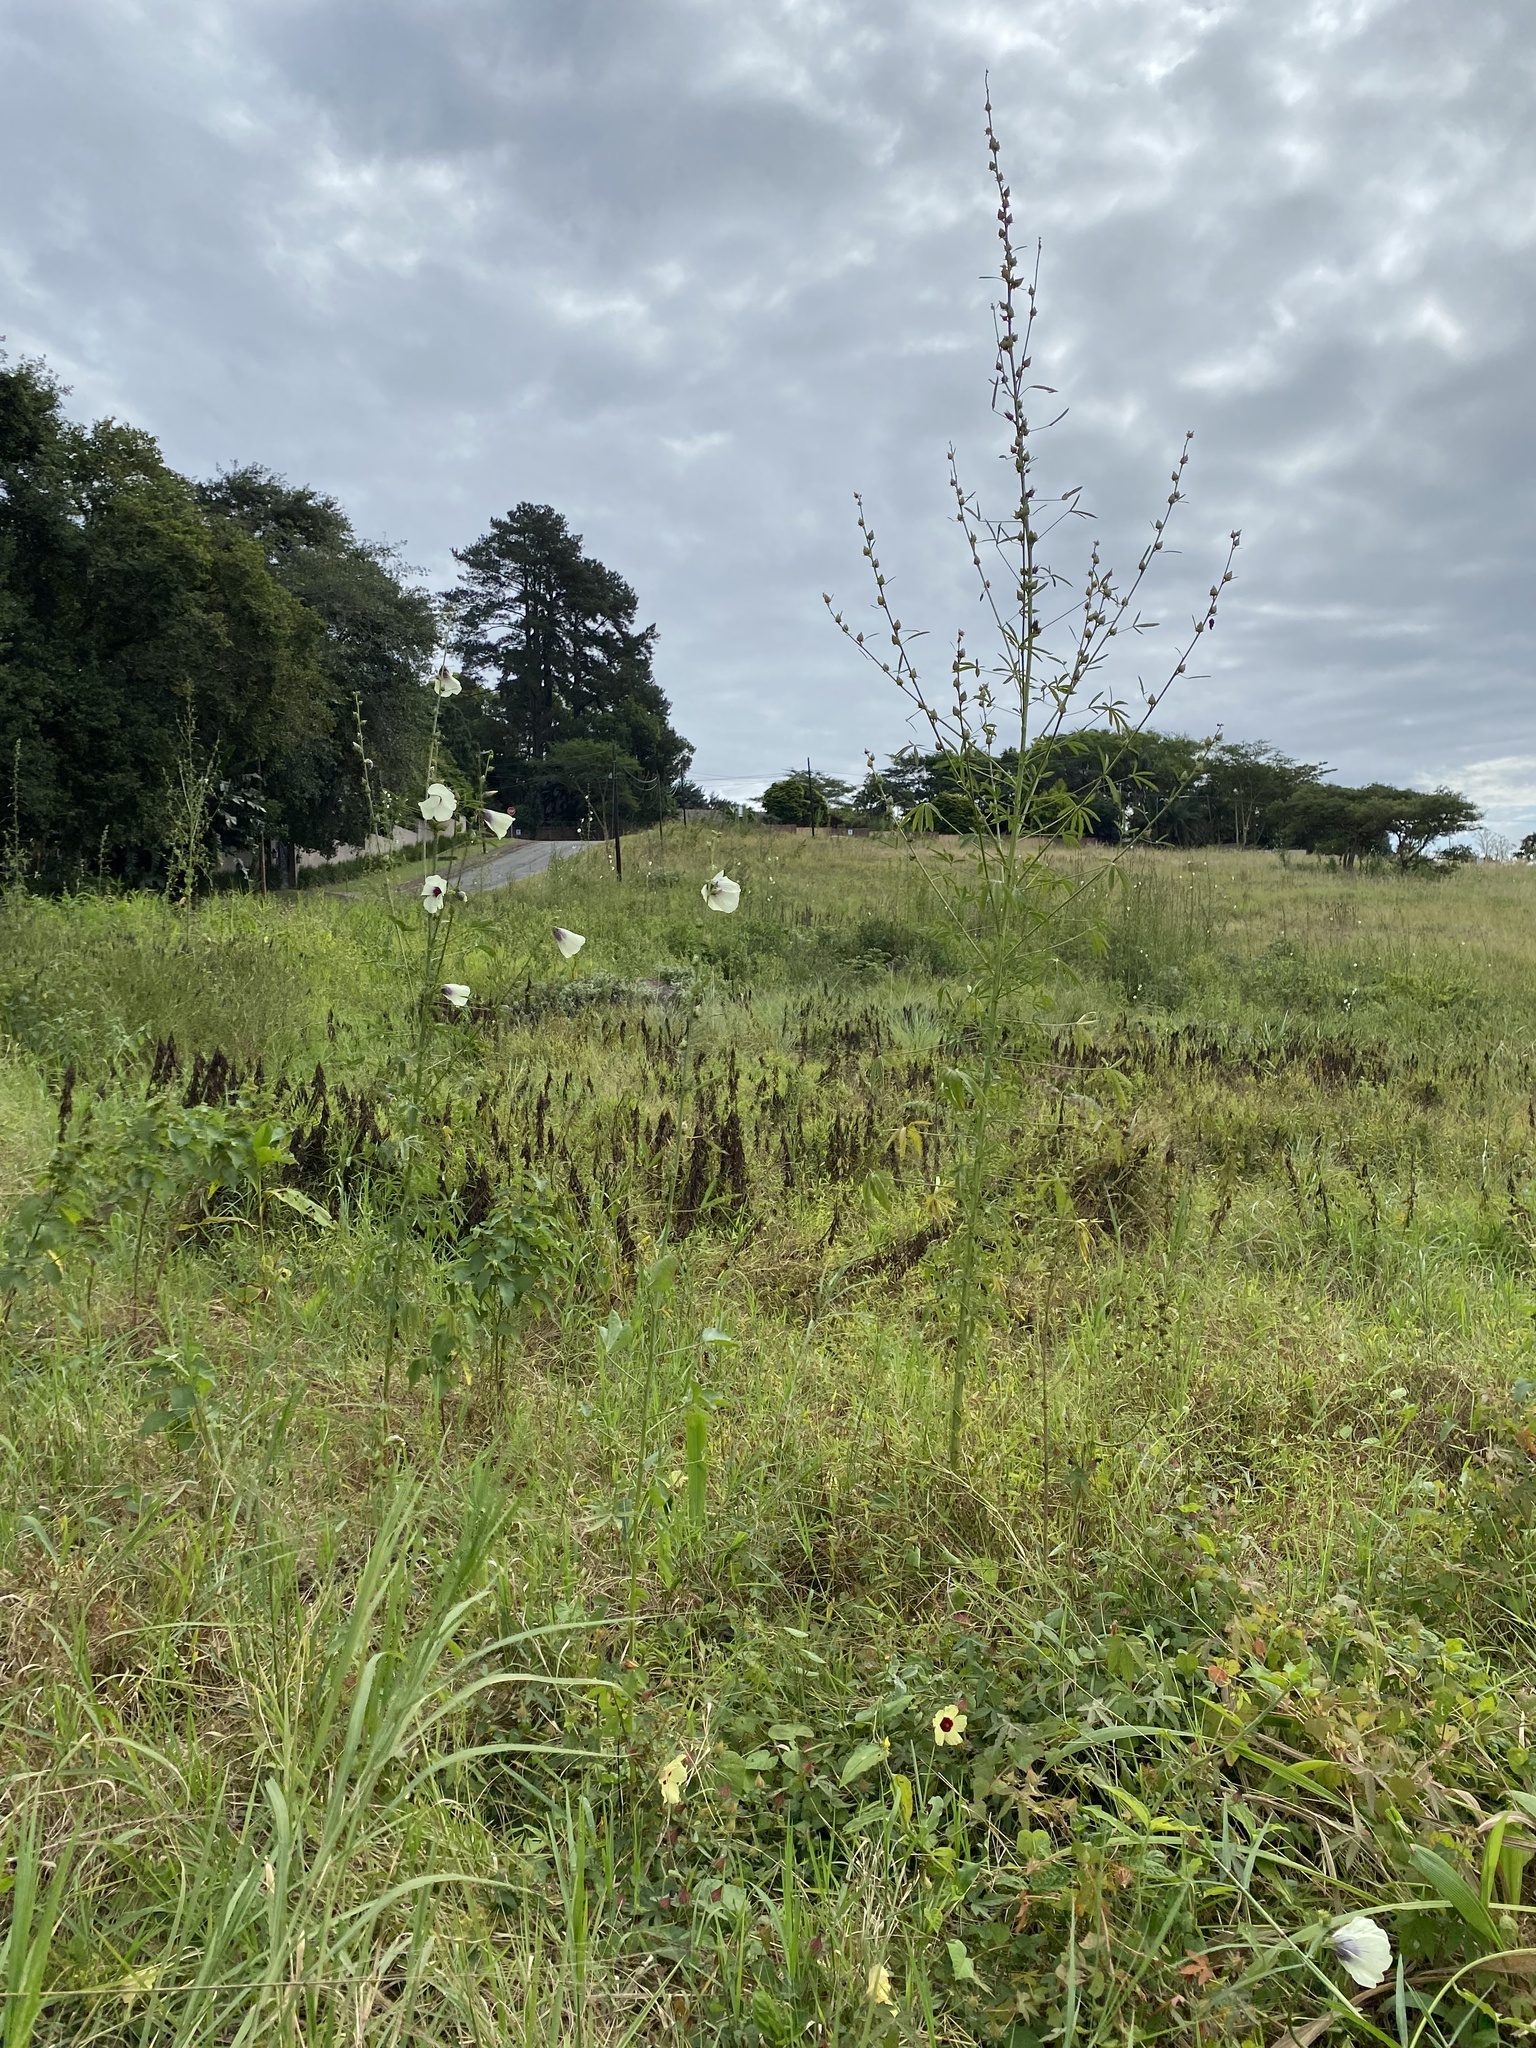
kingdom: Plantae
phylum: Tracheophyta
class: Magnoliopsida
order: Malvales
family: Malvaceae
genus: Hibiscus
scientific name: Hibiscus cannabinus
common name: Brown indianhemp
